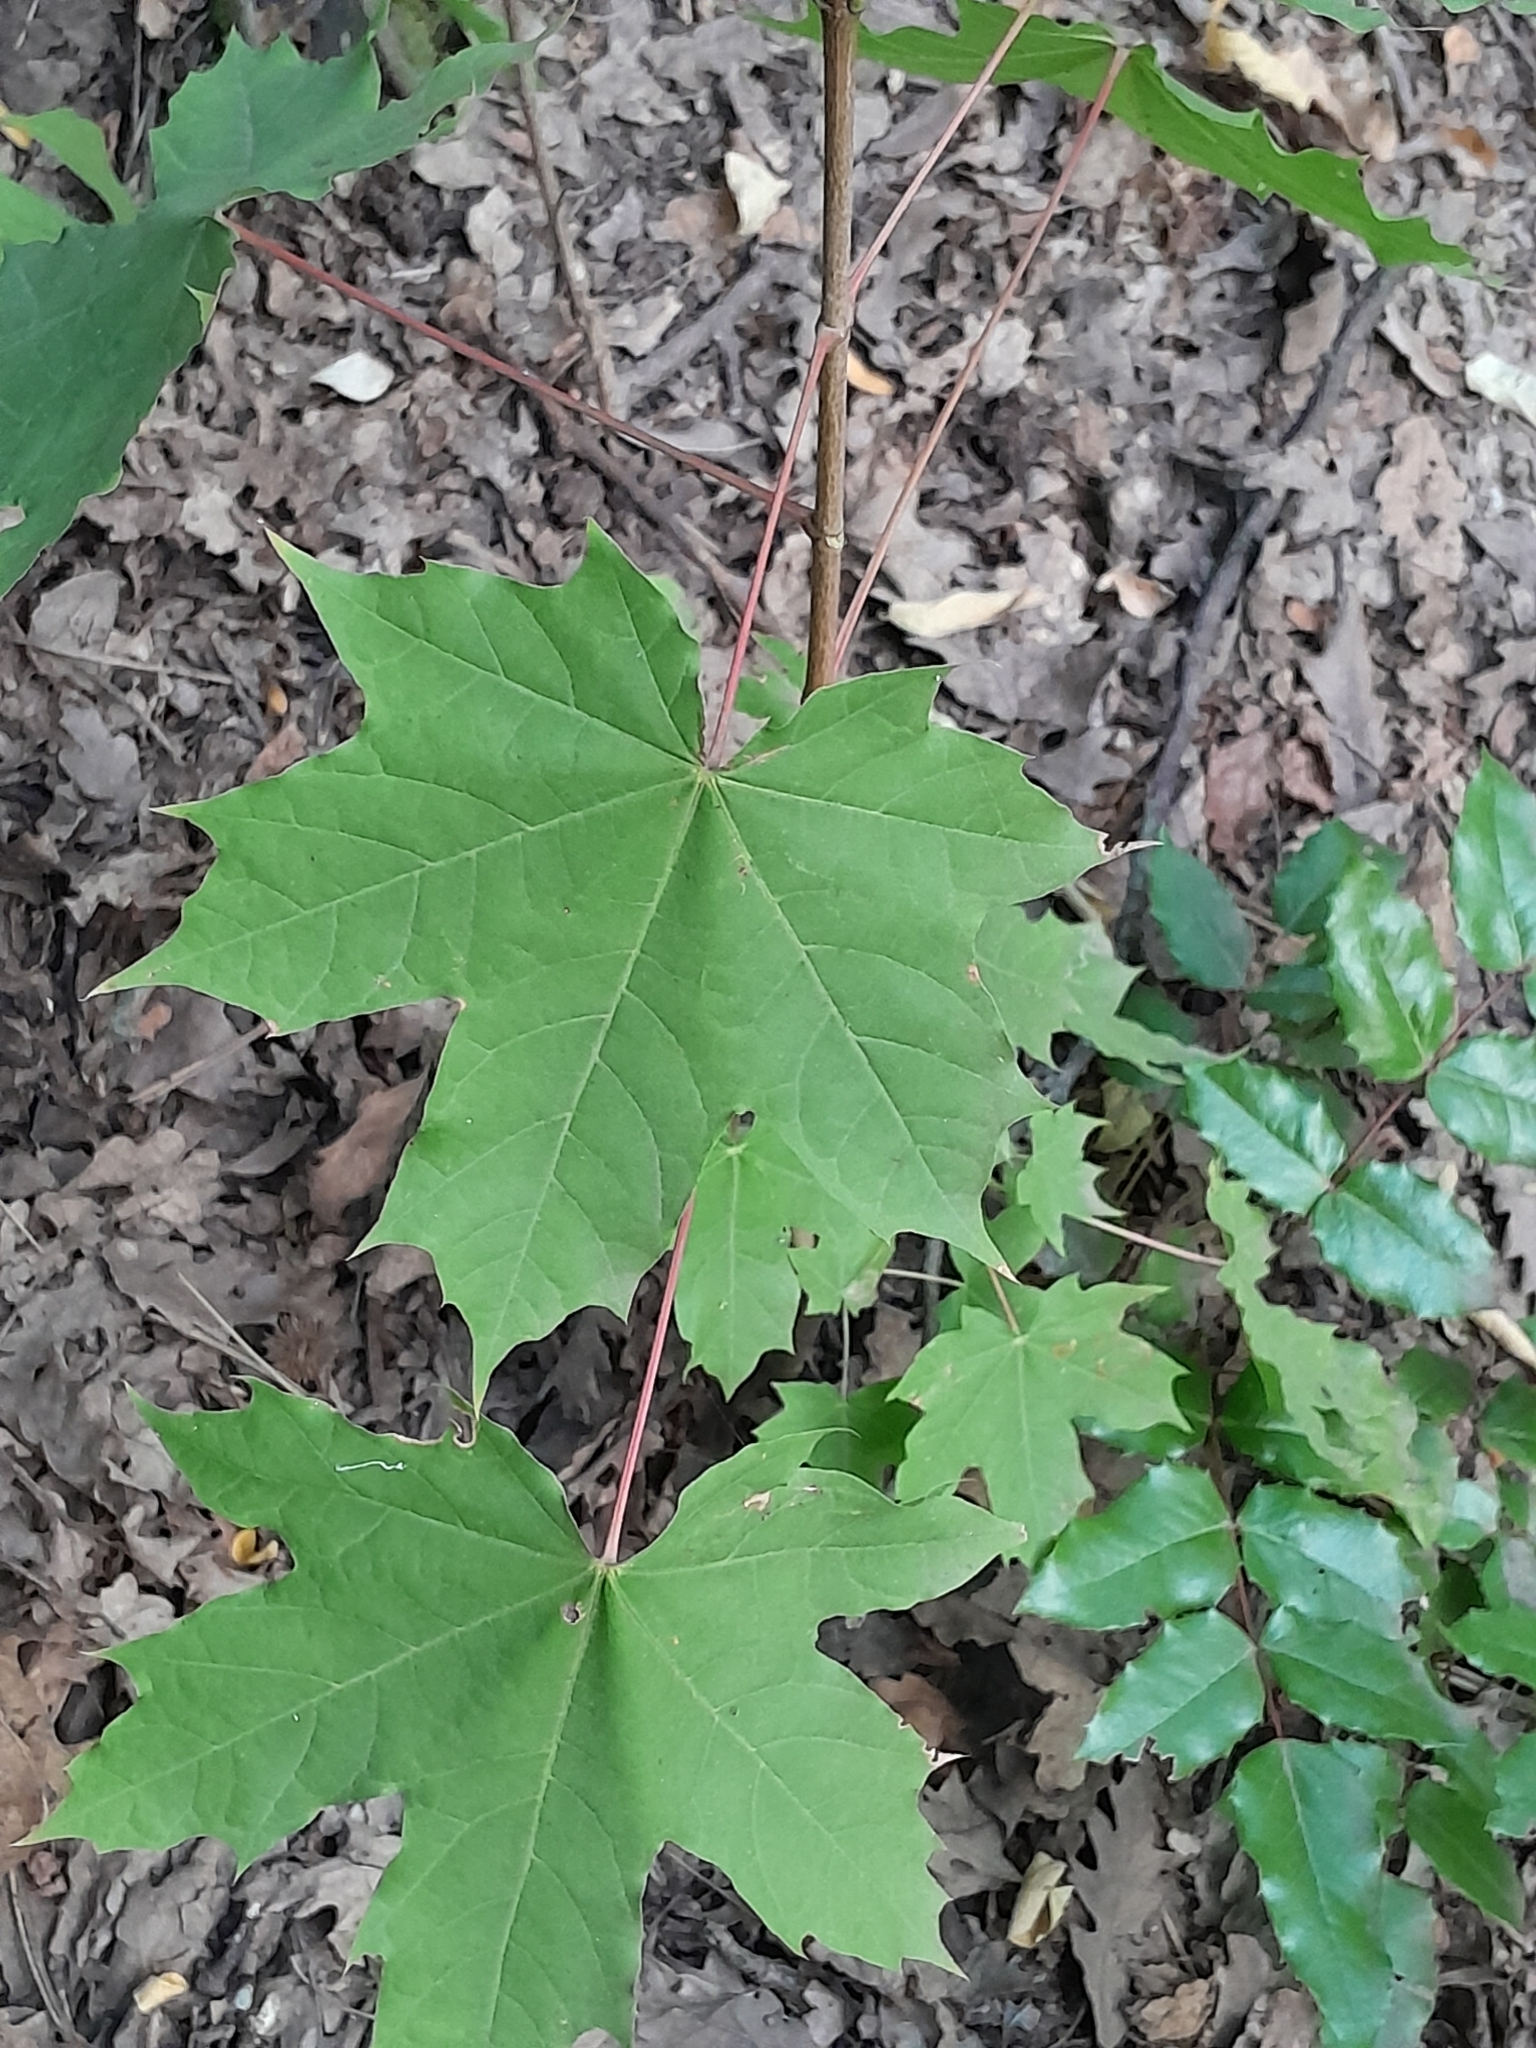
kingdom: Plantae
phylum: Tracheophyta
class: Magnoliopsida
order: Sapindales
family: Sapindaceae
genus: Acer
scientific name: Acer platanoides
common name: Norway maple
